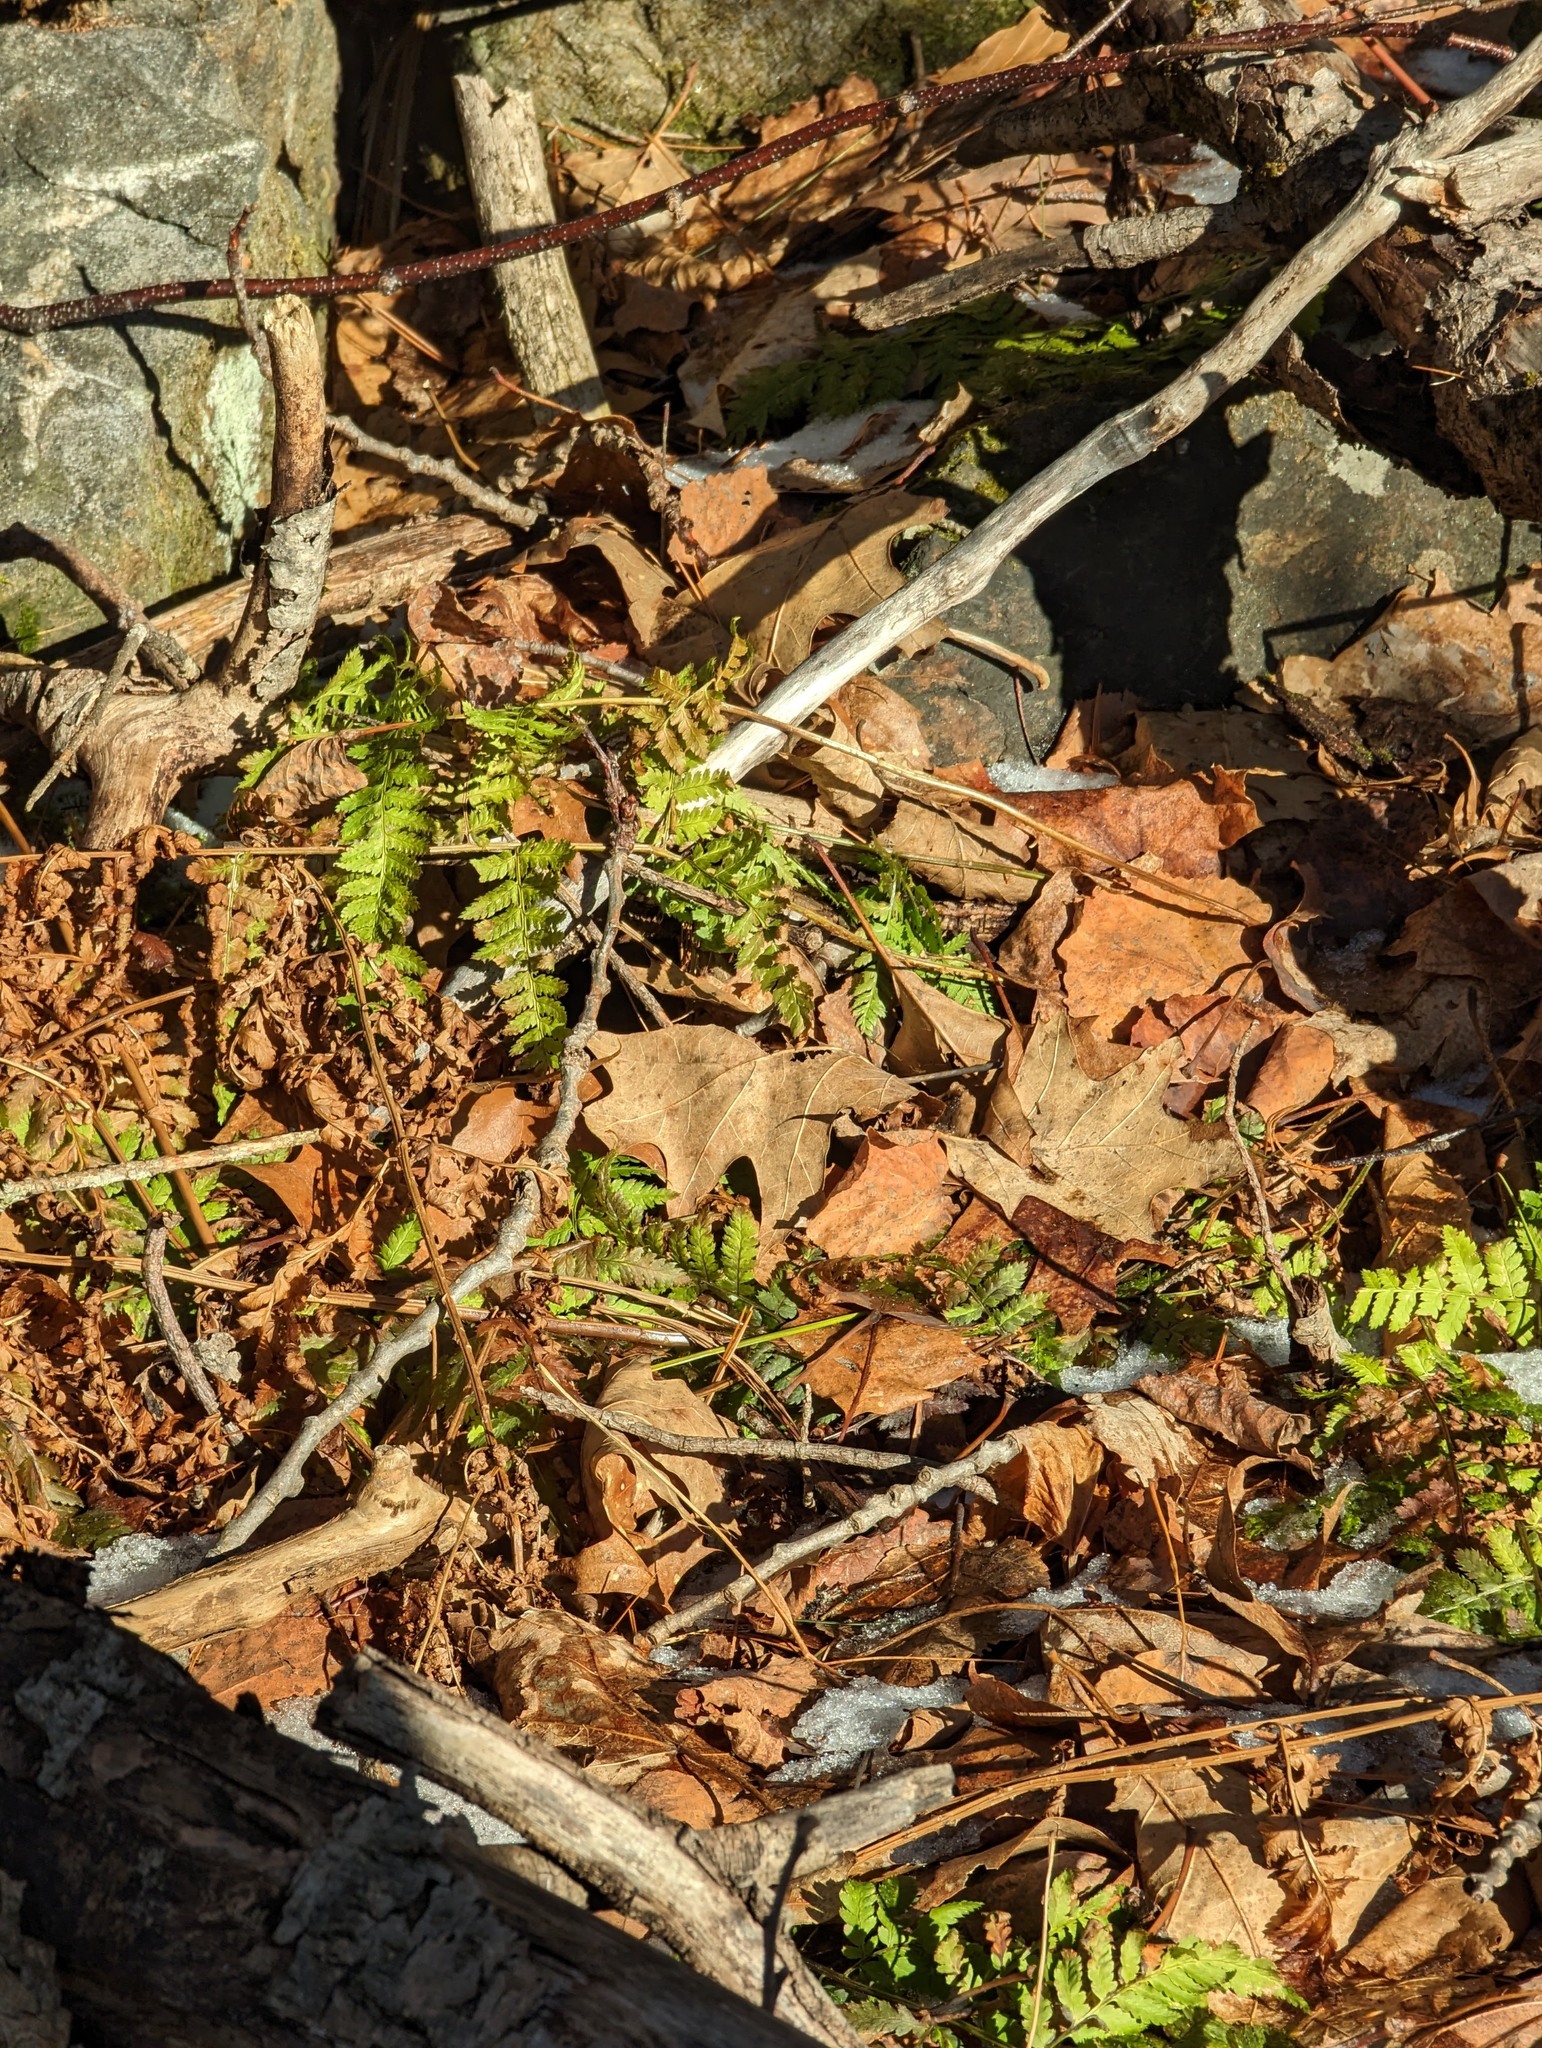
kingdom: Plantae
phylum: Tracheophyta
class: Polypodiopsida
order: Polypodiales
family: Dryopteridaceae
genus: Dryopteris
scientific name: Dryopteris intermedia
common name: Evergreen wood fern
